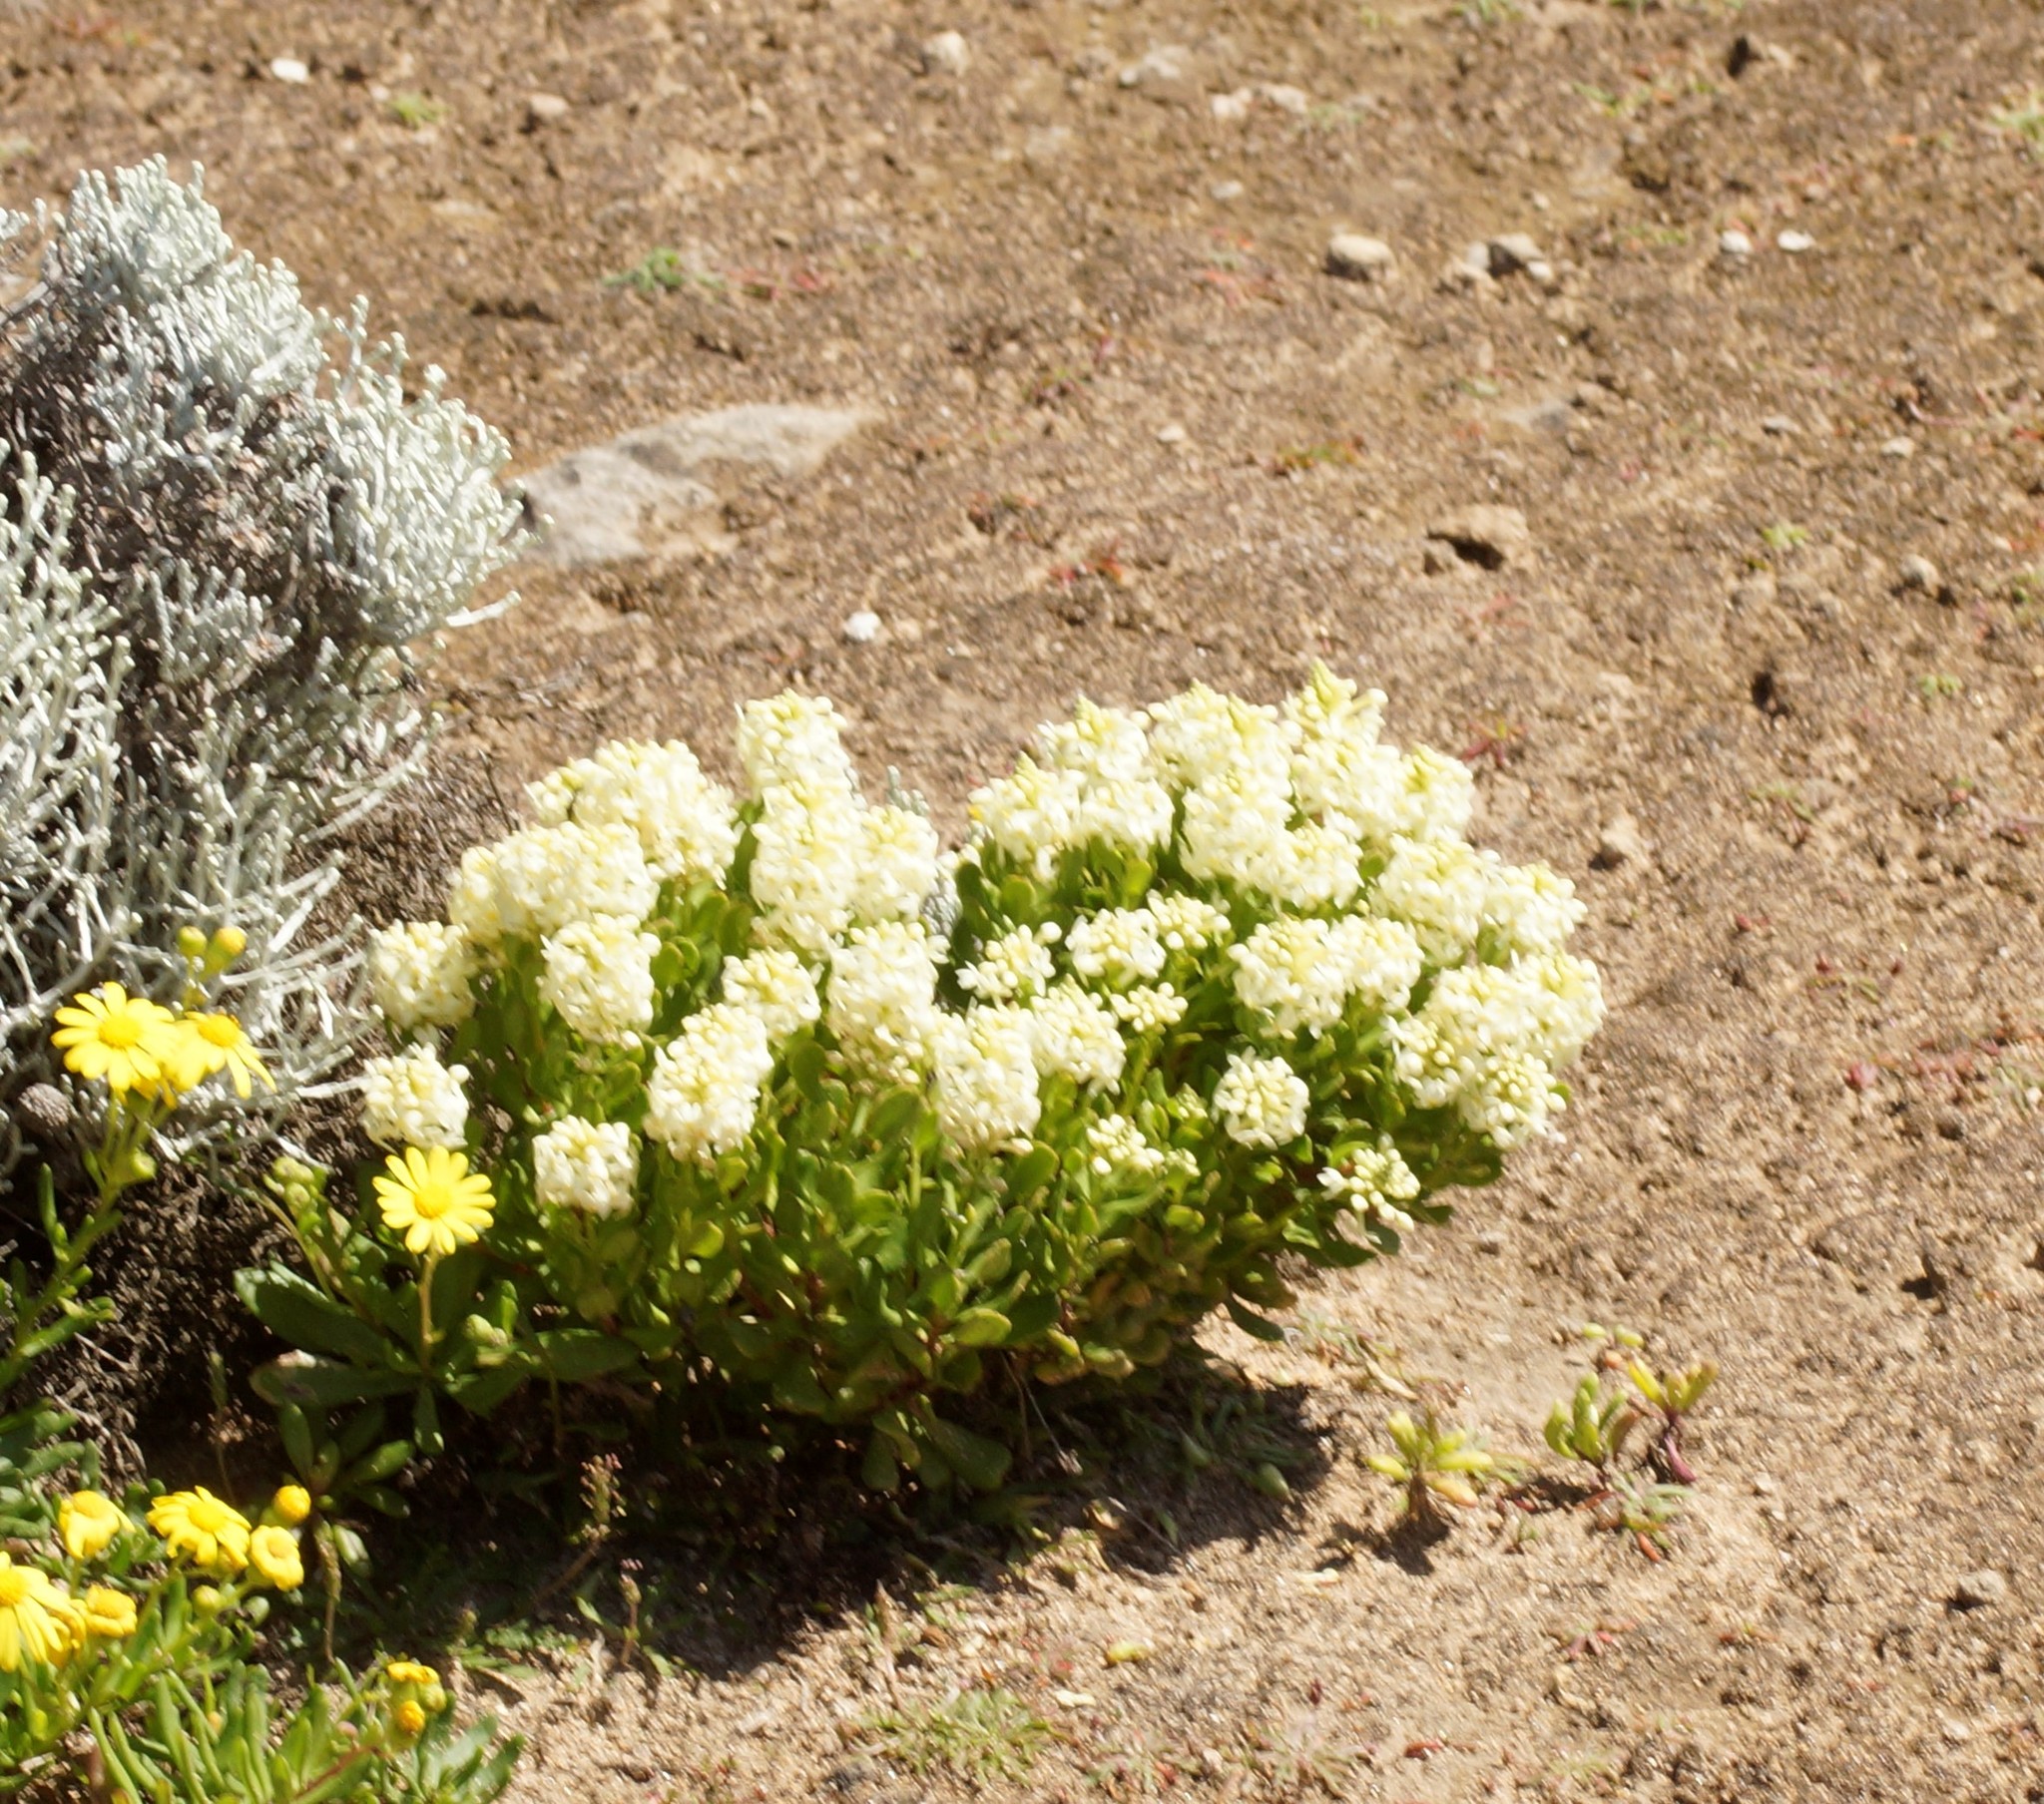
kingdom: Plantae
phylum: Tracheophyta
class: Magnoliopsida
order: Celastrales
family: Celastraceae
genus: Stackhousia
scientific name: Stackhousia spathulata
